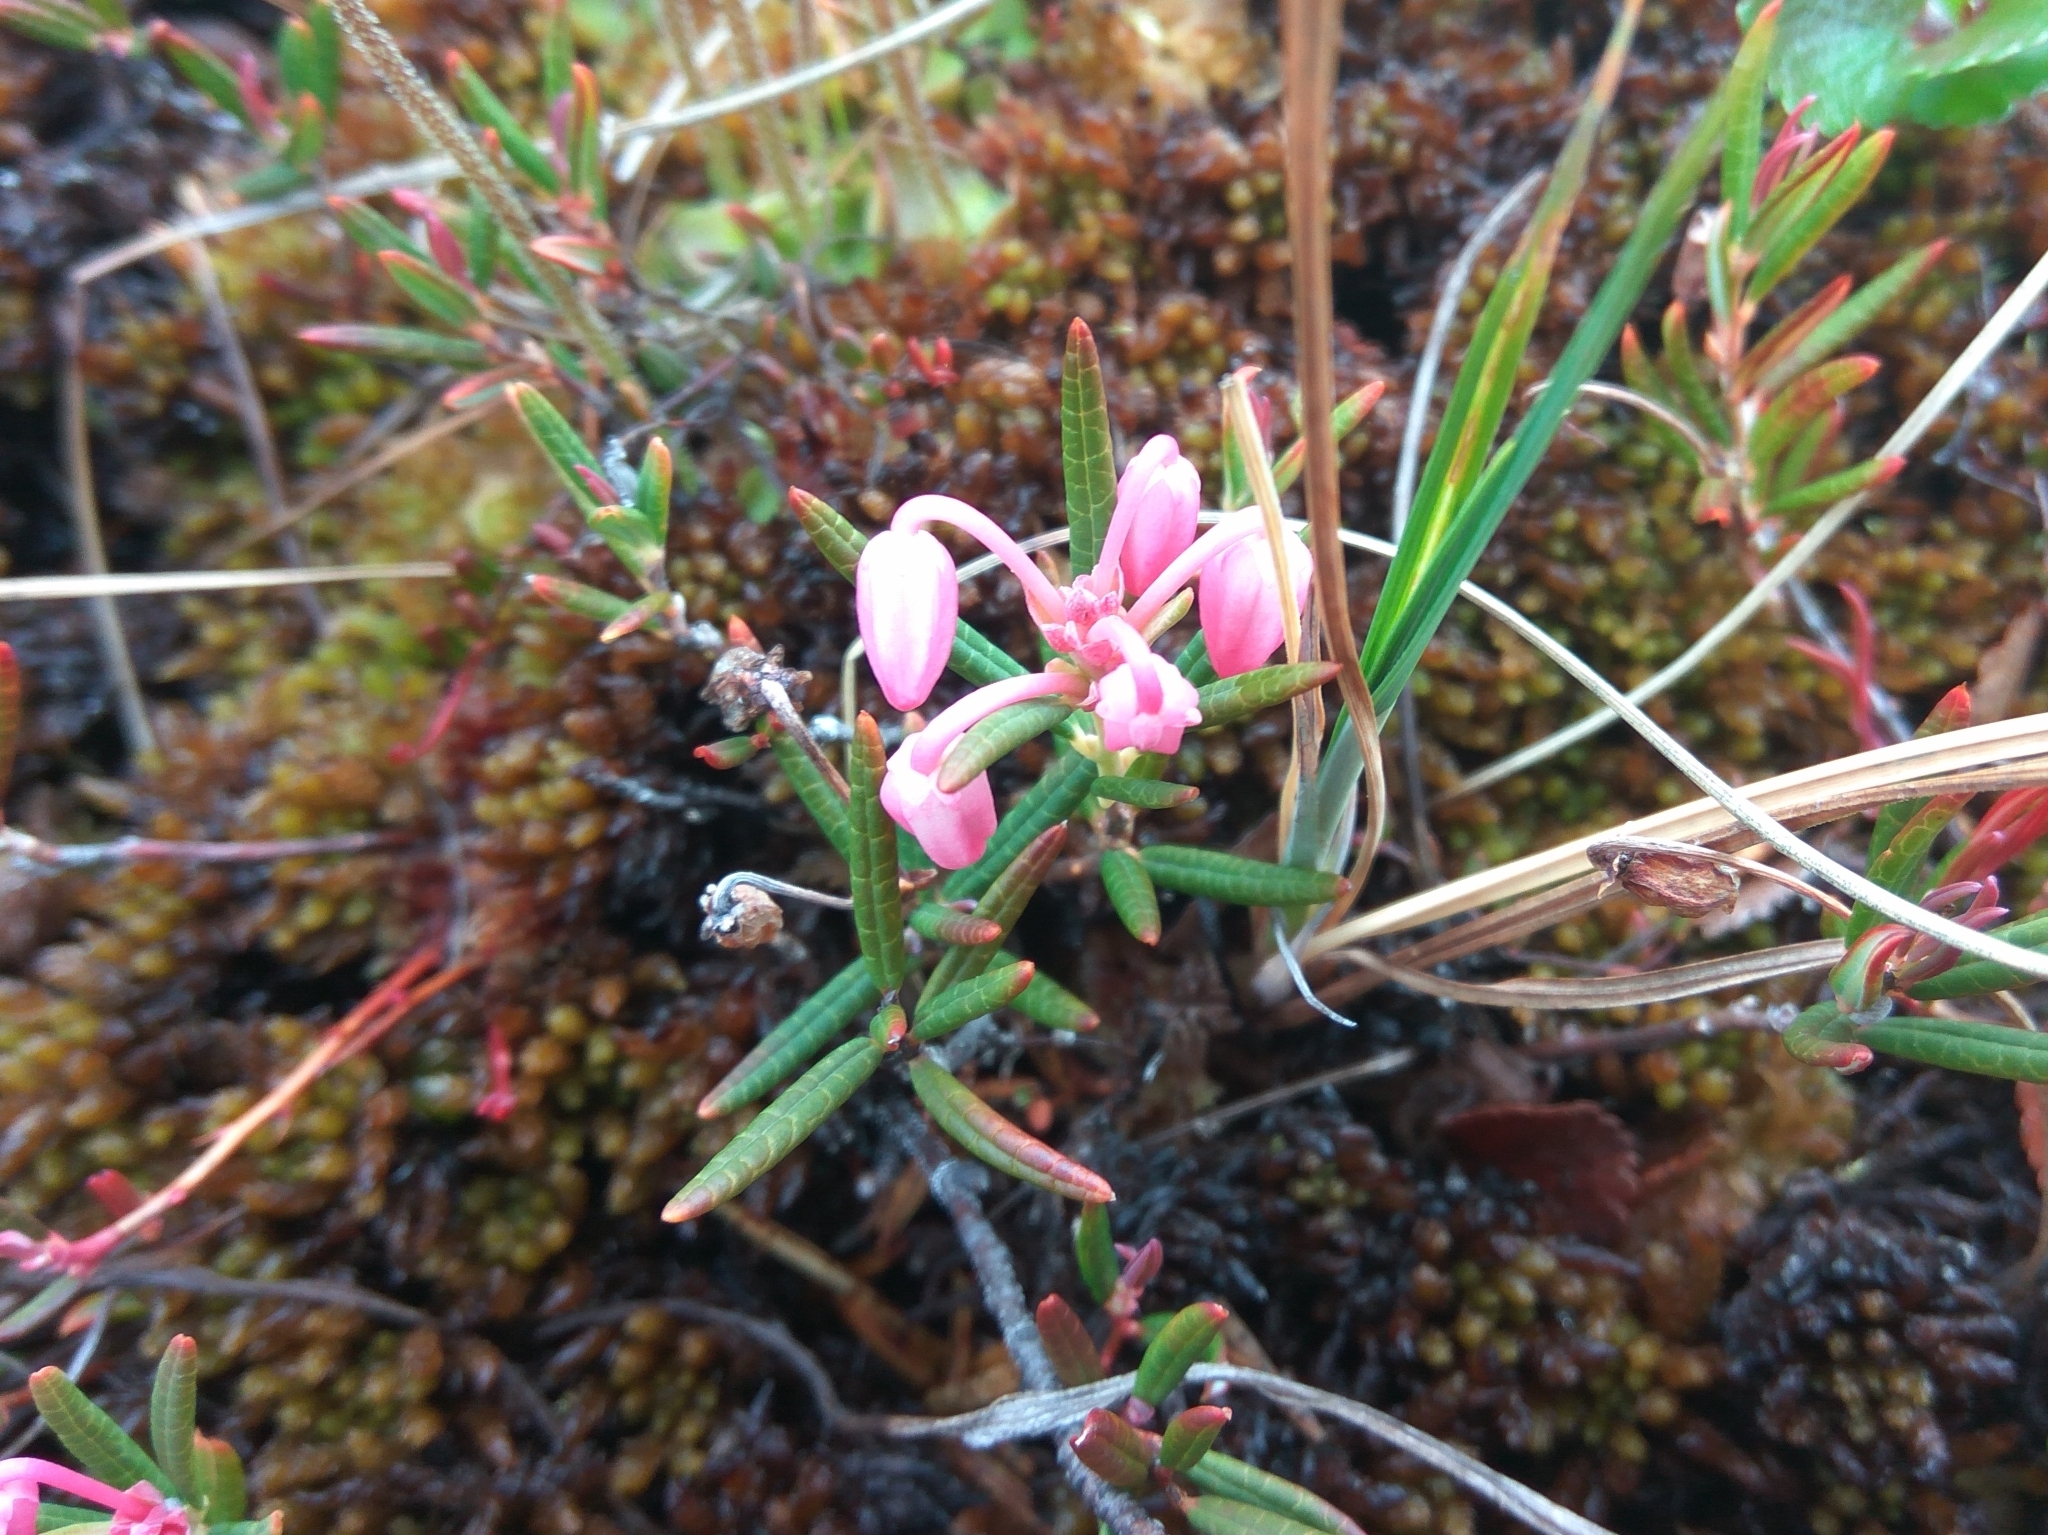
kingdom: Plantae
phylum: Tracheophyta
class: Magnoliopsida
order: Ericales
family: Ericaceae
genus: Andromeda
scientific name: Andromeda polifolia
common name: Bog-rosemary
